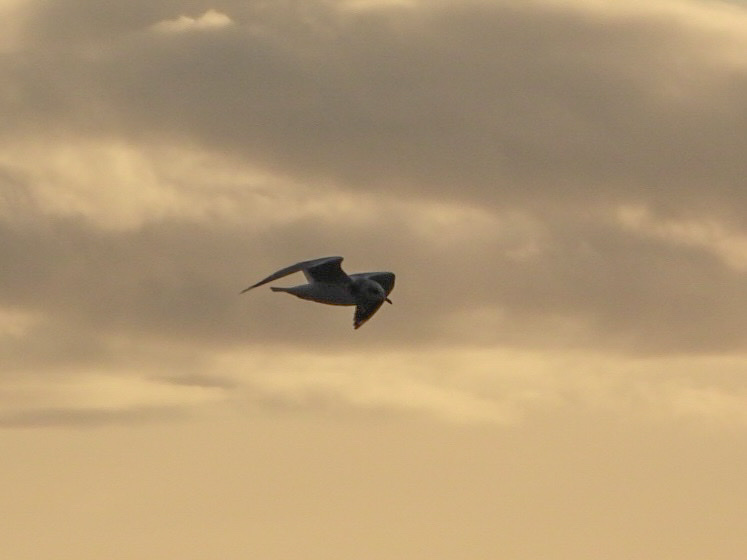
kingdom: Animalia
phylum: Chordata
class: Aves
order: Charadriiformes
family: Laridae
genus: Larus
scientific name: Larus brachyrhynchus
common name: Short-billed gull
